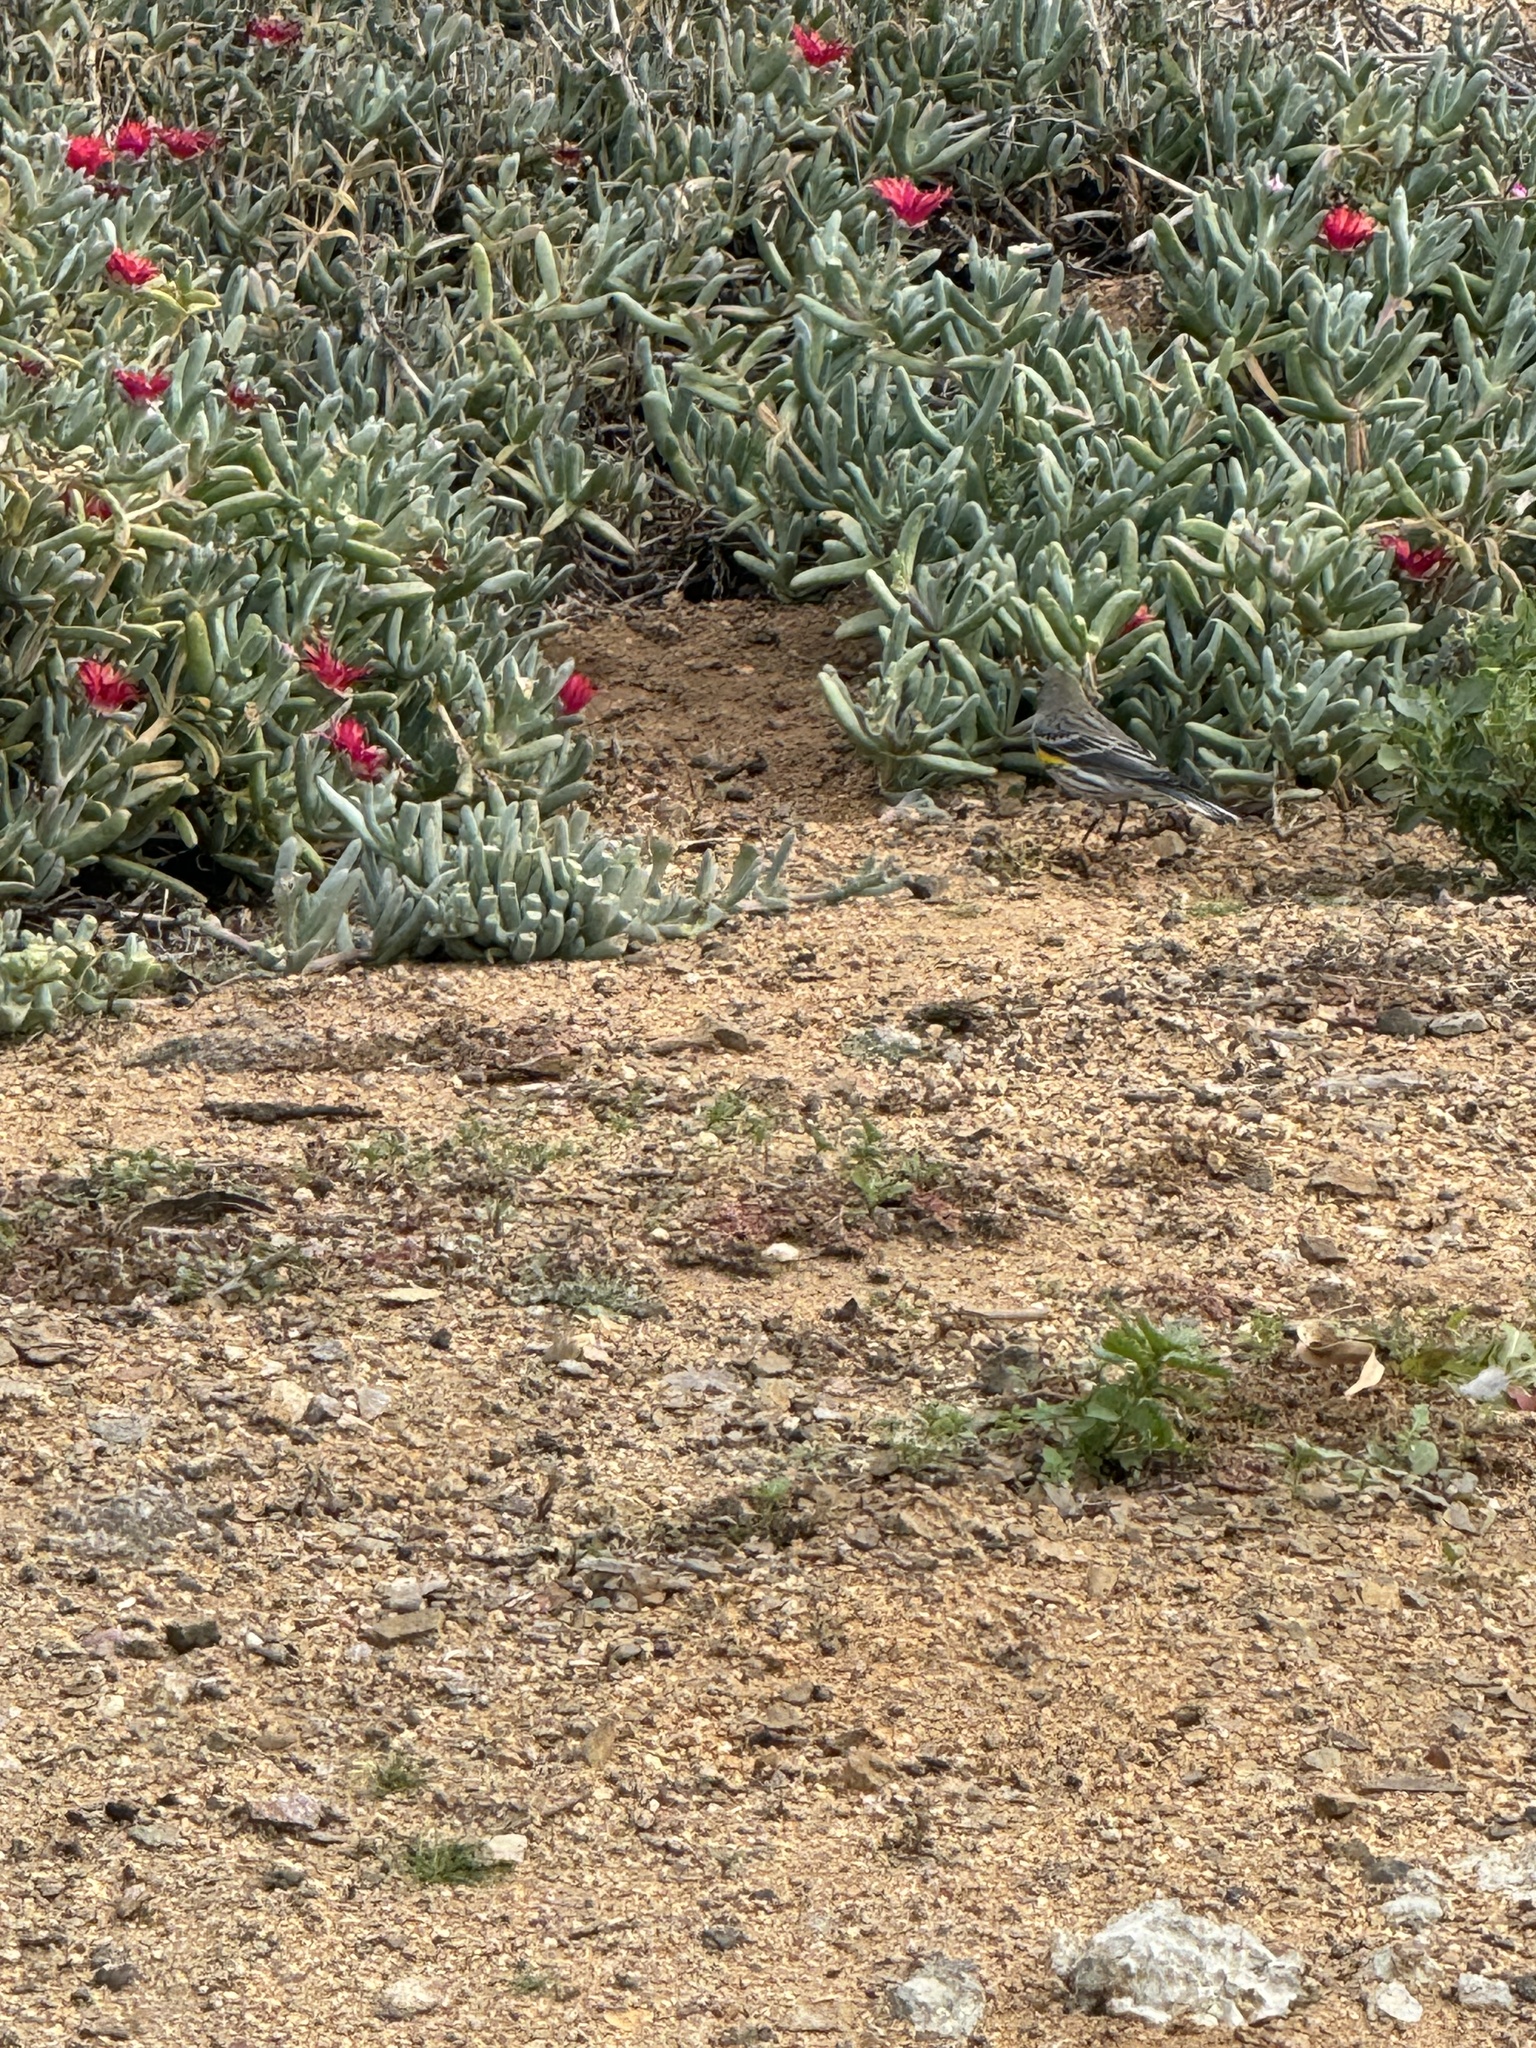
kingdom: Animalia
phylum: Chordata
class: Aves
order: Passeriformes
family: Parulidae
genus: Setophaga
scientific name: Setophaga auduboni
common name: Audubon's warbler
